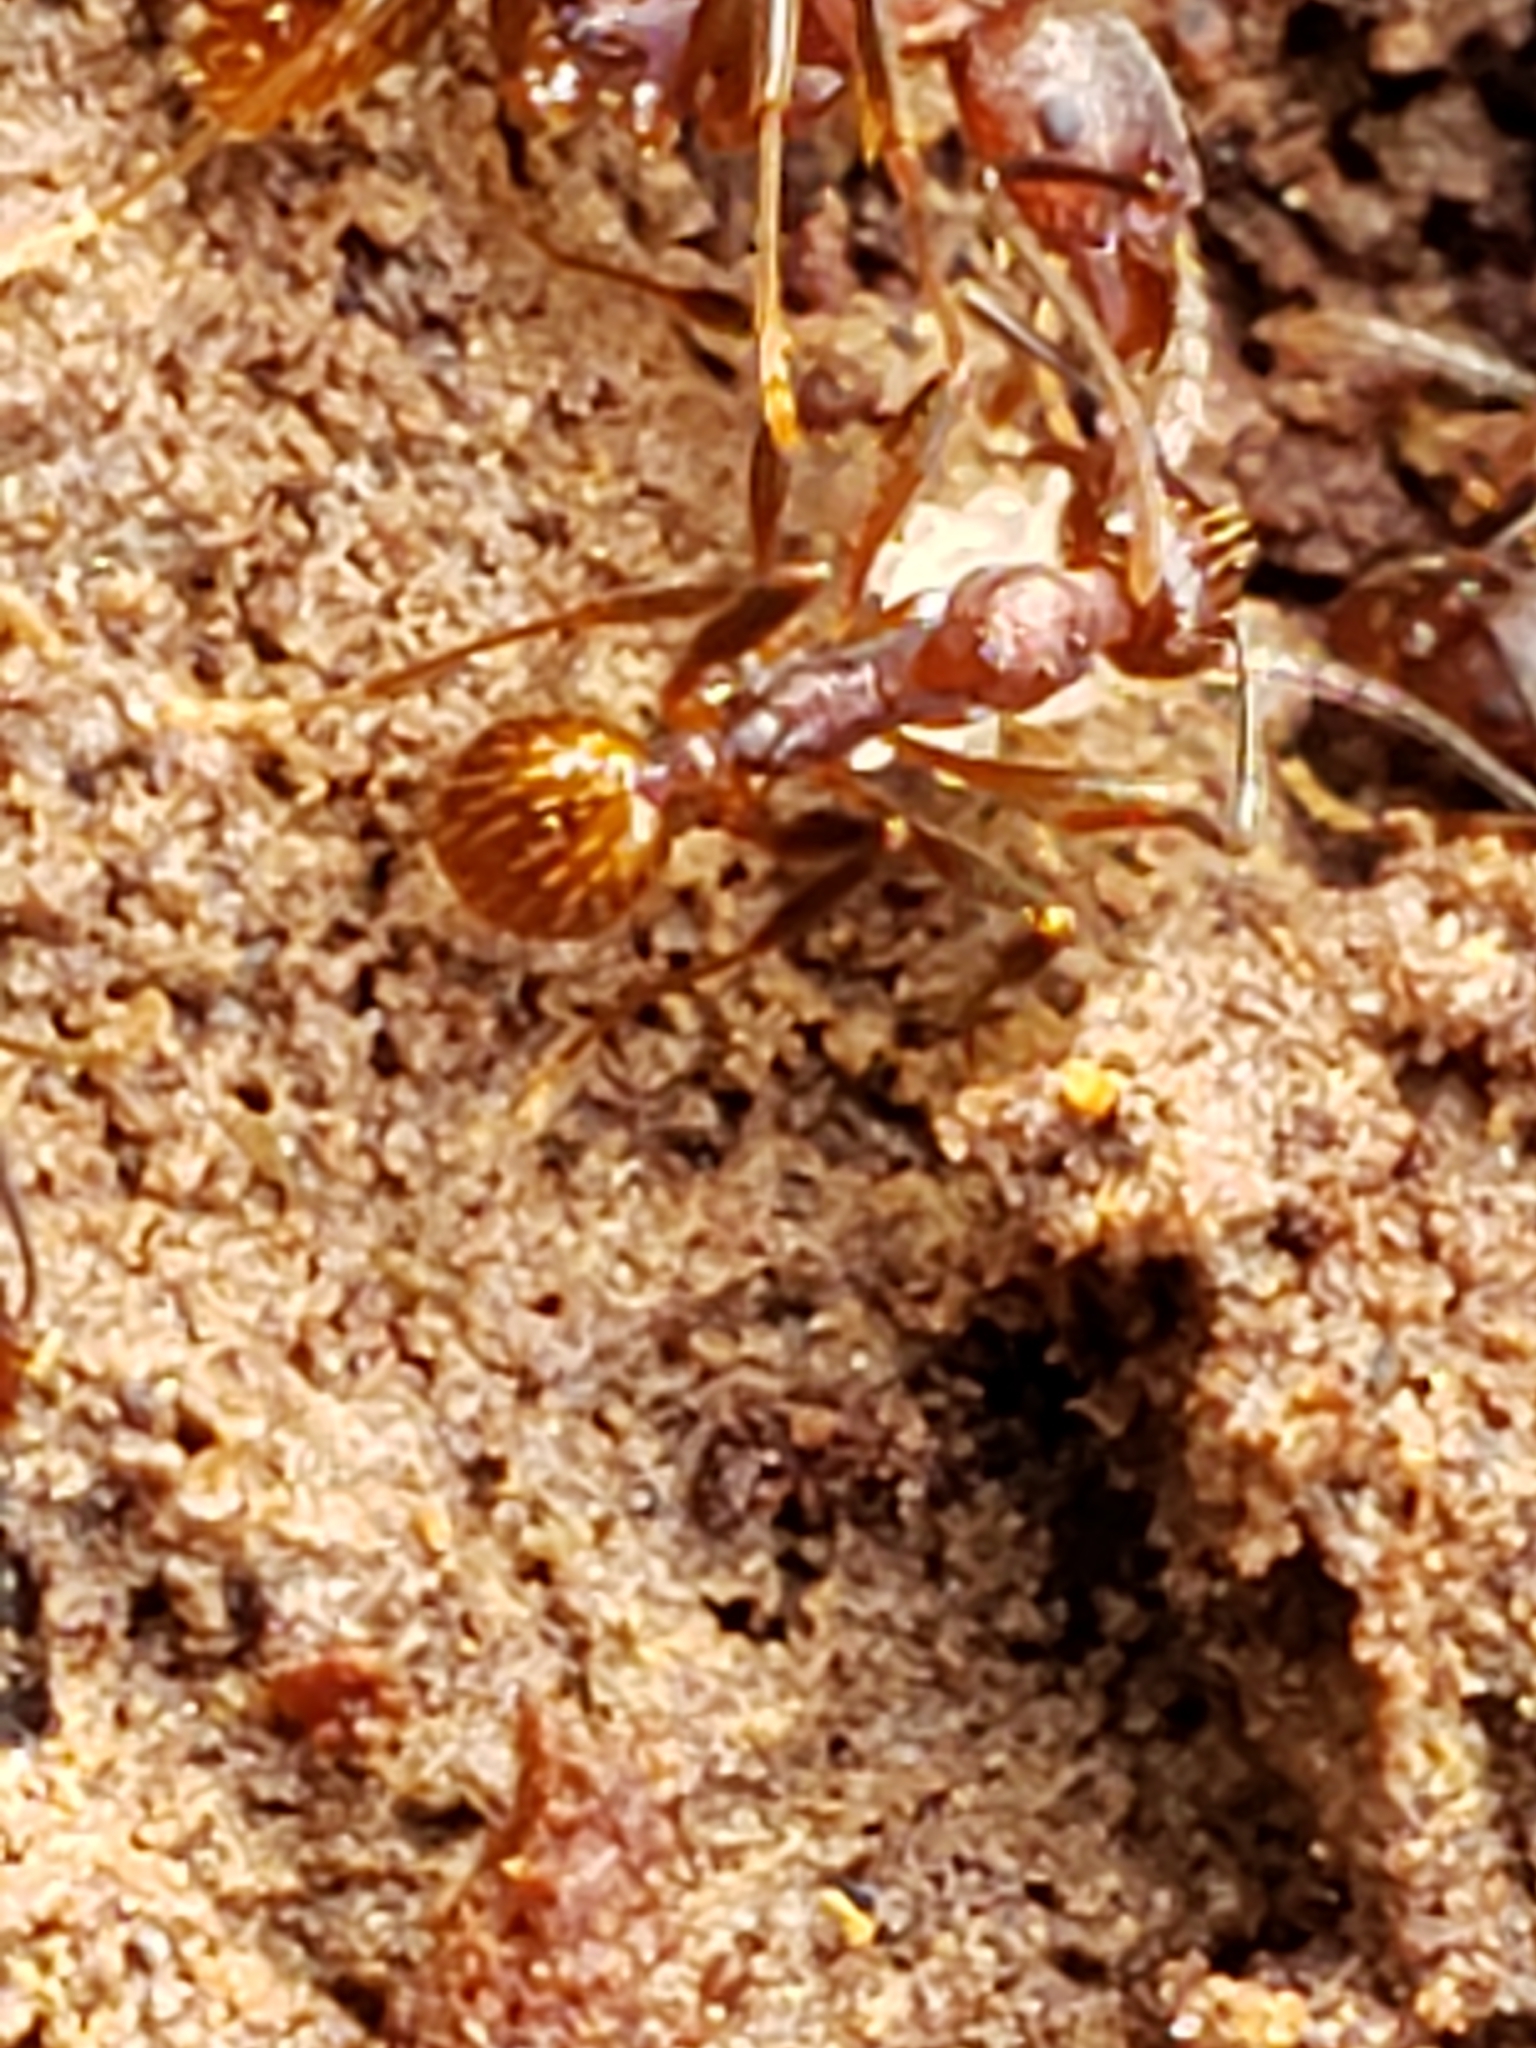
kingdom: Animalia
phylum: Arthropoda
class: Insecta
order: Hymenoptera
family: Formicidae
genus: Aphaenogaster
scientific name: Aphaenogaster fulva
